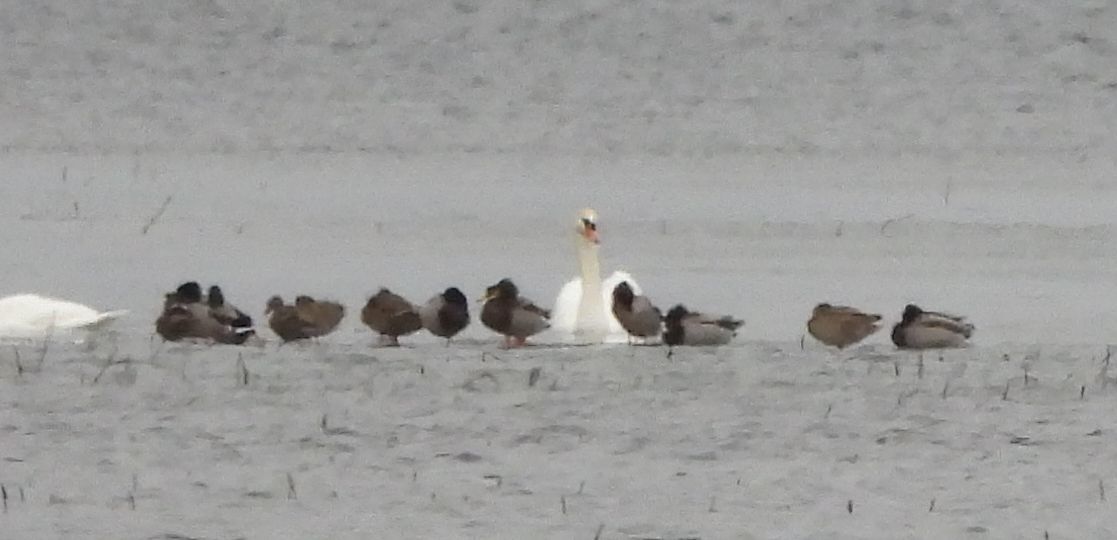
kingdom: Animalia
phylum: Chordata
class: Aves
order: Anseriformes
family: Anatidae
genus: Anas
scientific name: Anas platyrhynchos
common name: Mallard
